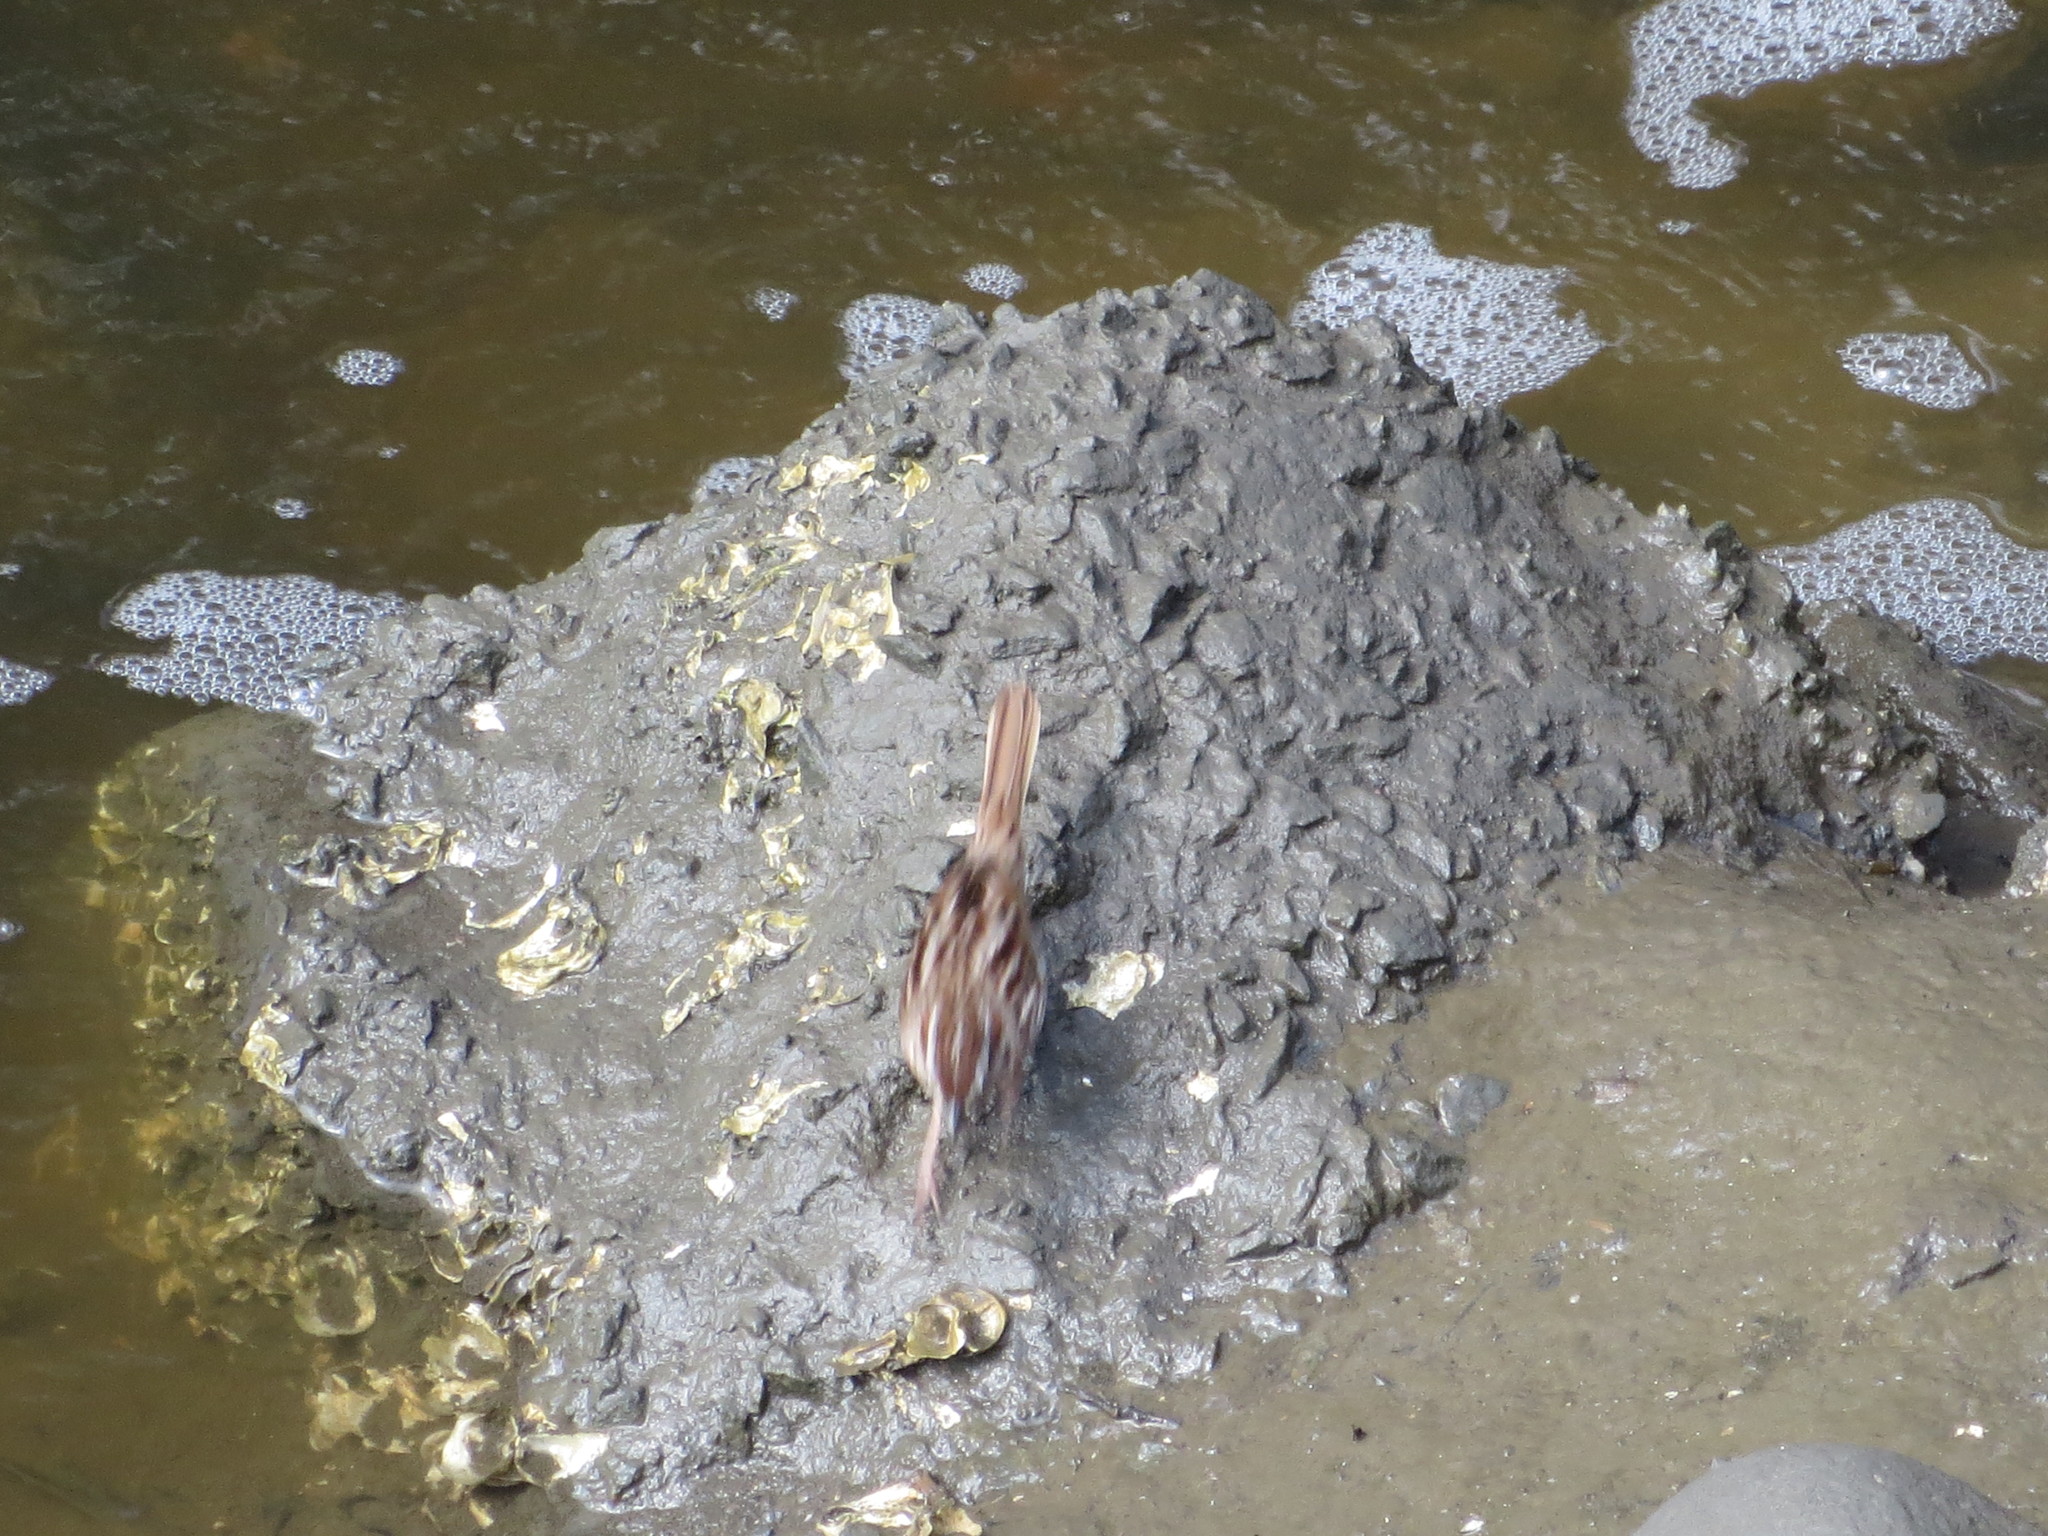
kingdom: Animalia
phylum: Chordata
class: Aves
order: Passeriformes
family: Passerellidae
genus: Melospiza
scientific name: Melospiza melodia
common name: Song sparrow
